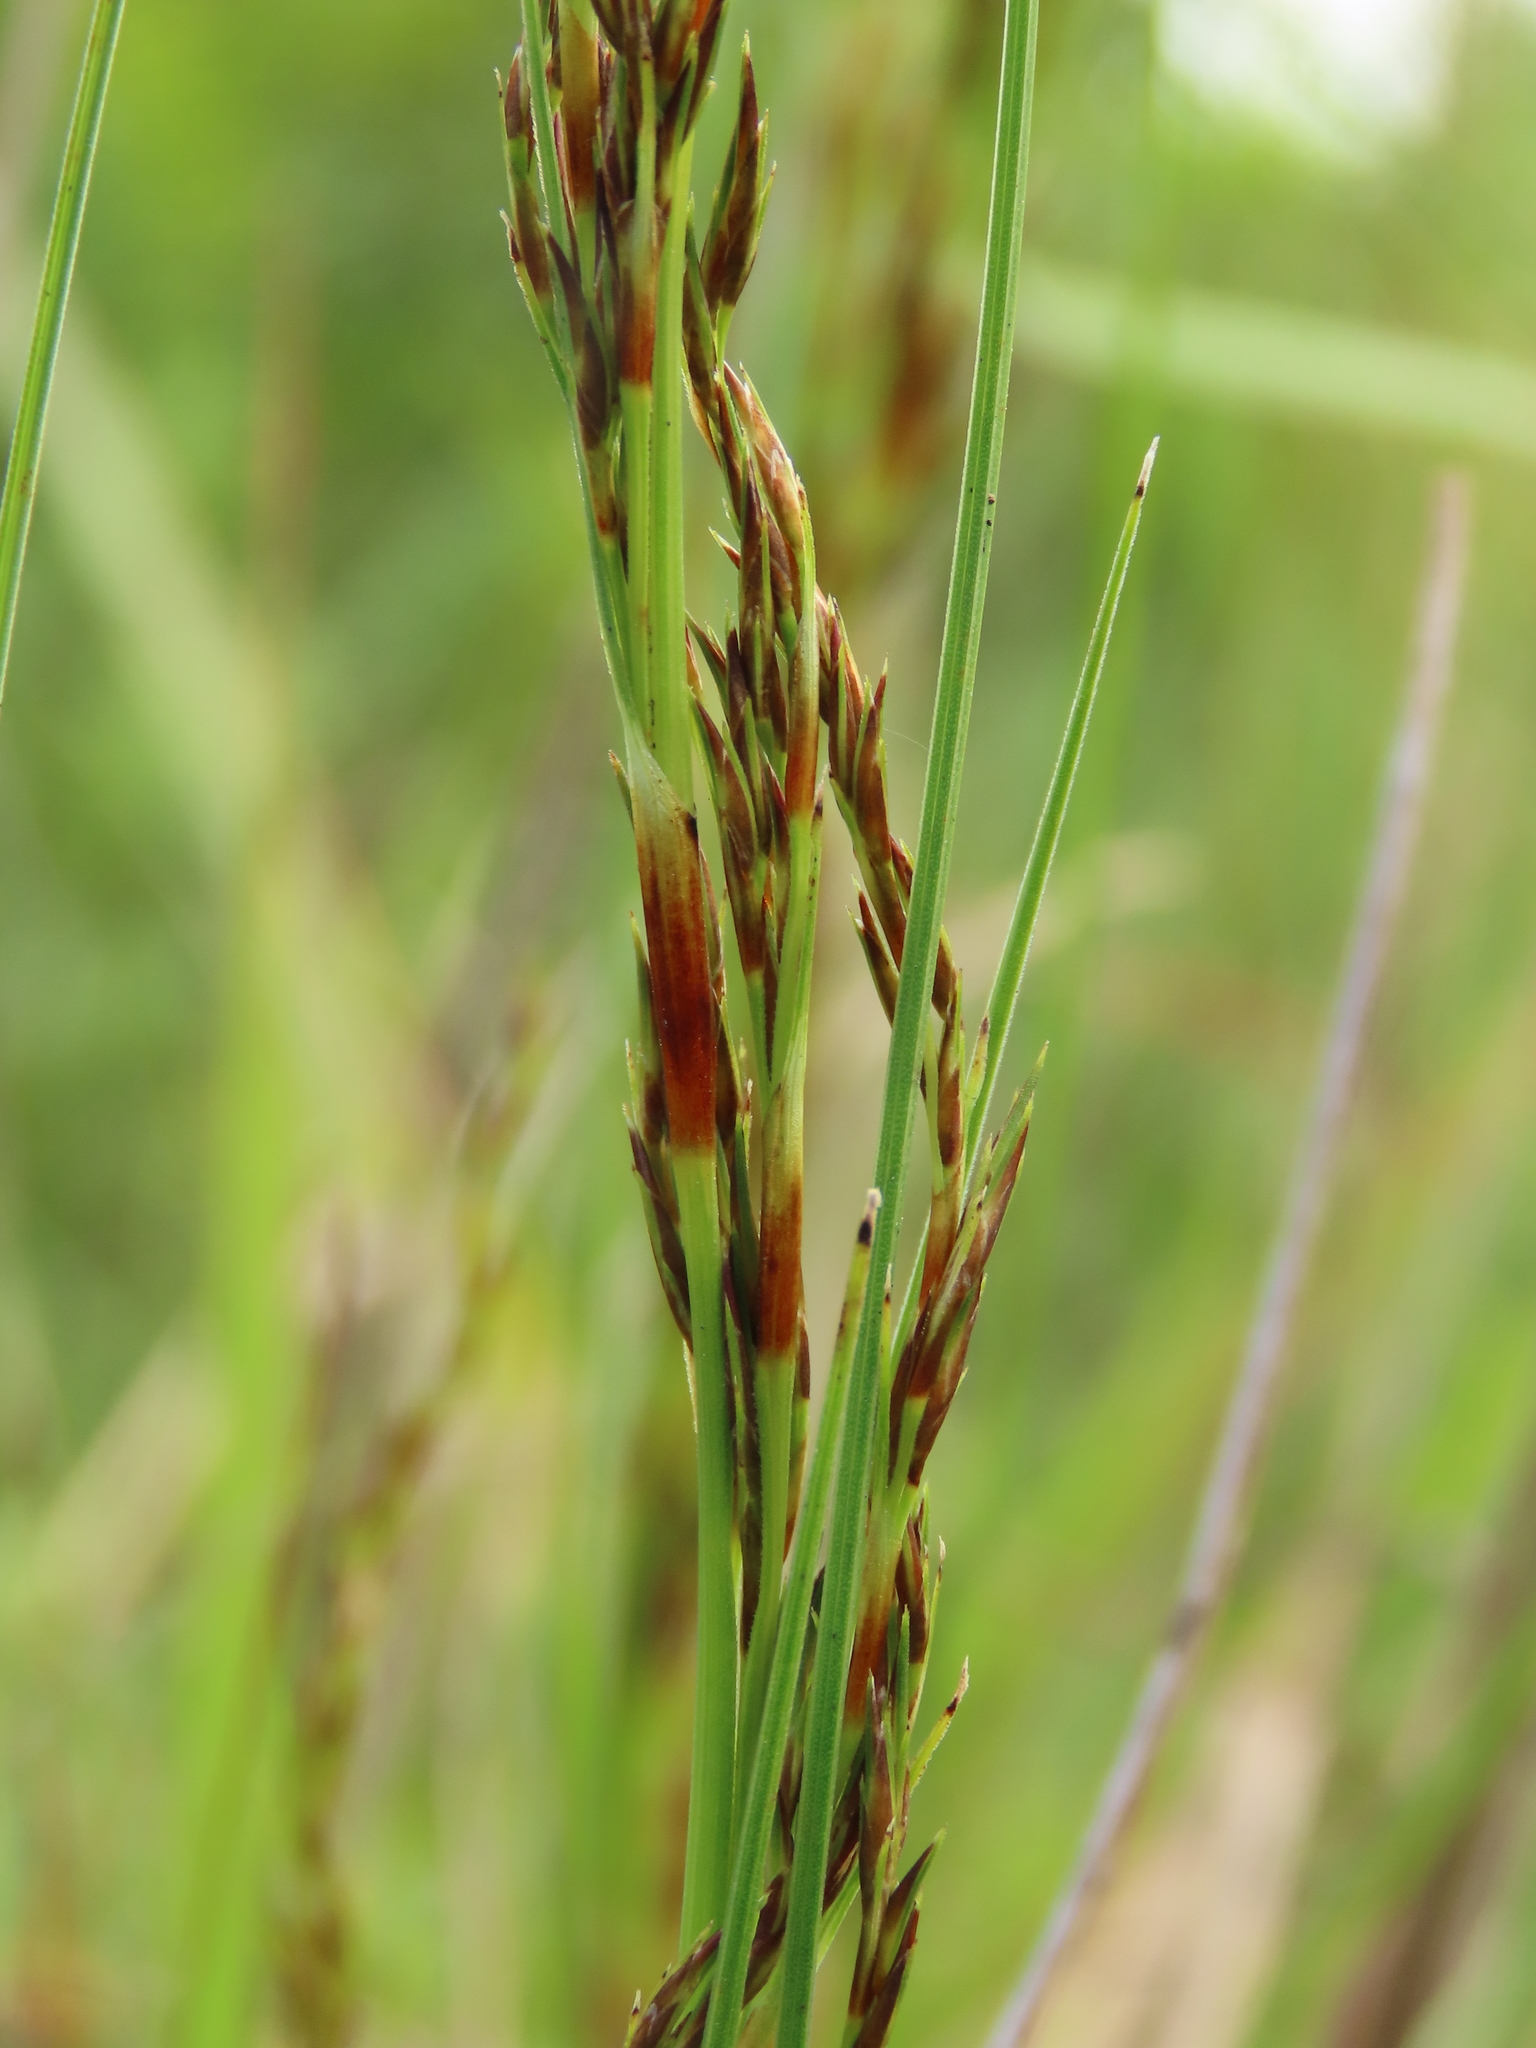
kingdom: Plantae
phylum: Tracheophyta
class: Liliopsida
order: Poales
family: Cyperaceae
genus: Schoenus
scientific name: Schoenus falcatus
